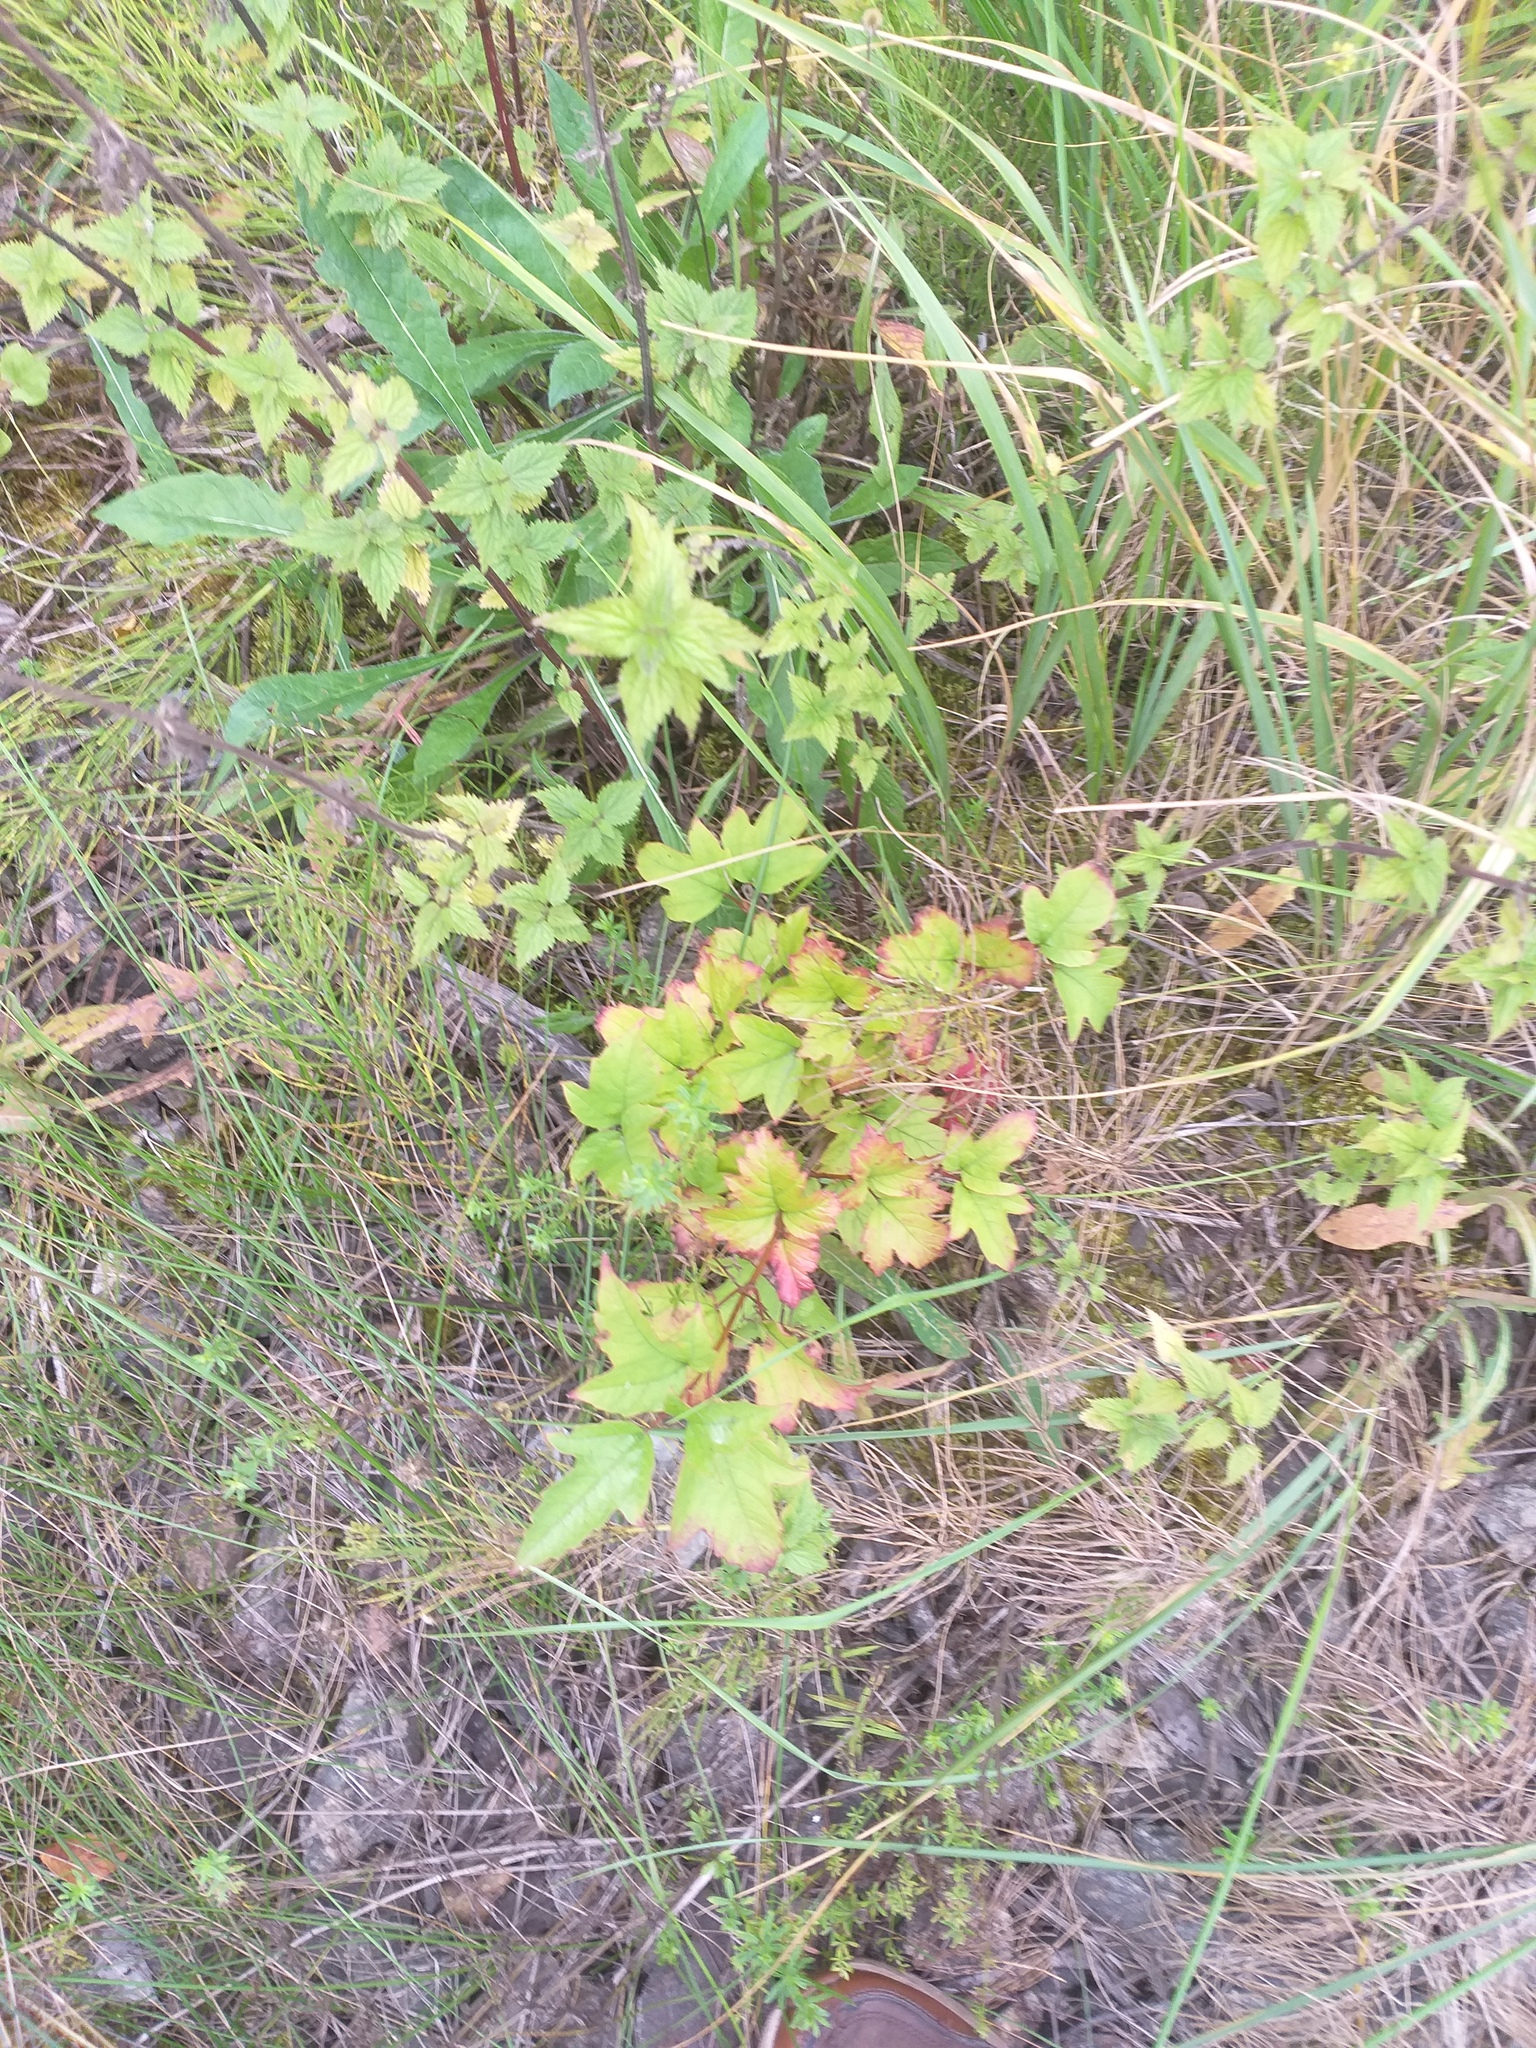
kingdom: Plantae
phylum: Tracheophyta
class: Magnoliopsida
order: Dipsacales
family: Viburnaceae
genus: Viburnum
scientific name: Viburnum opulus
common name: Guelder-rose
